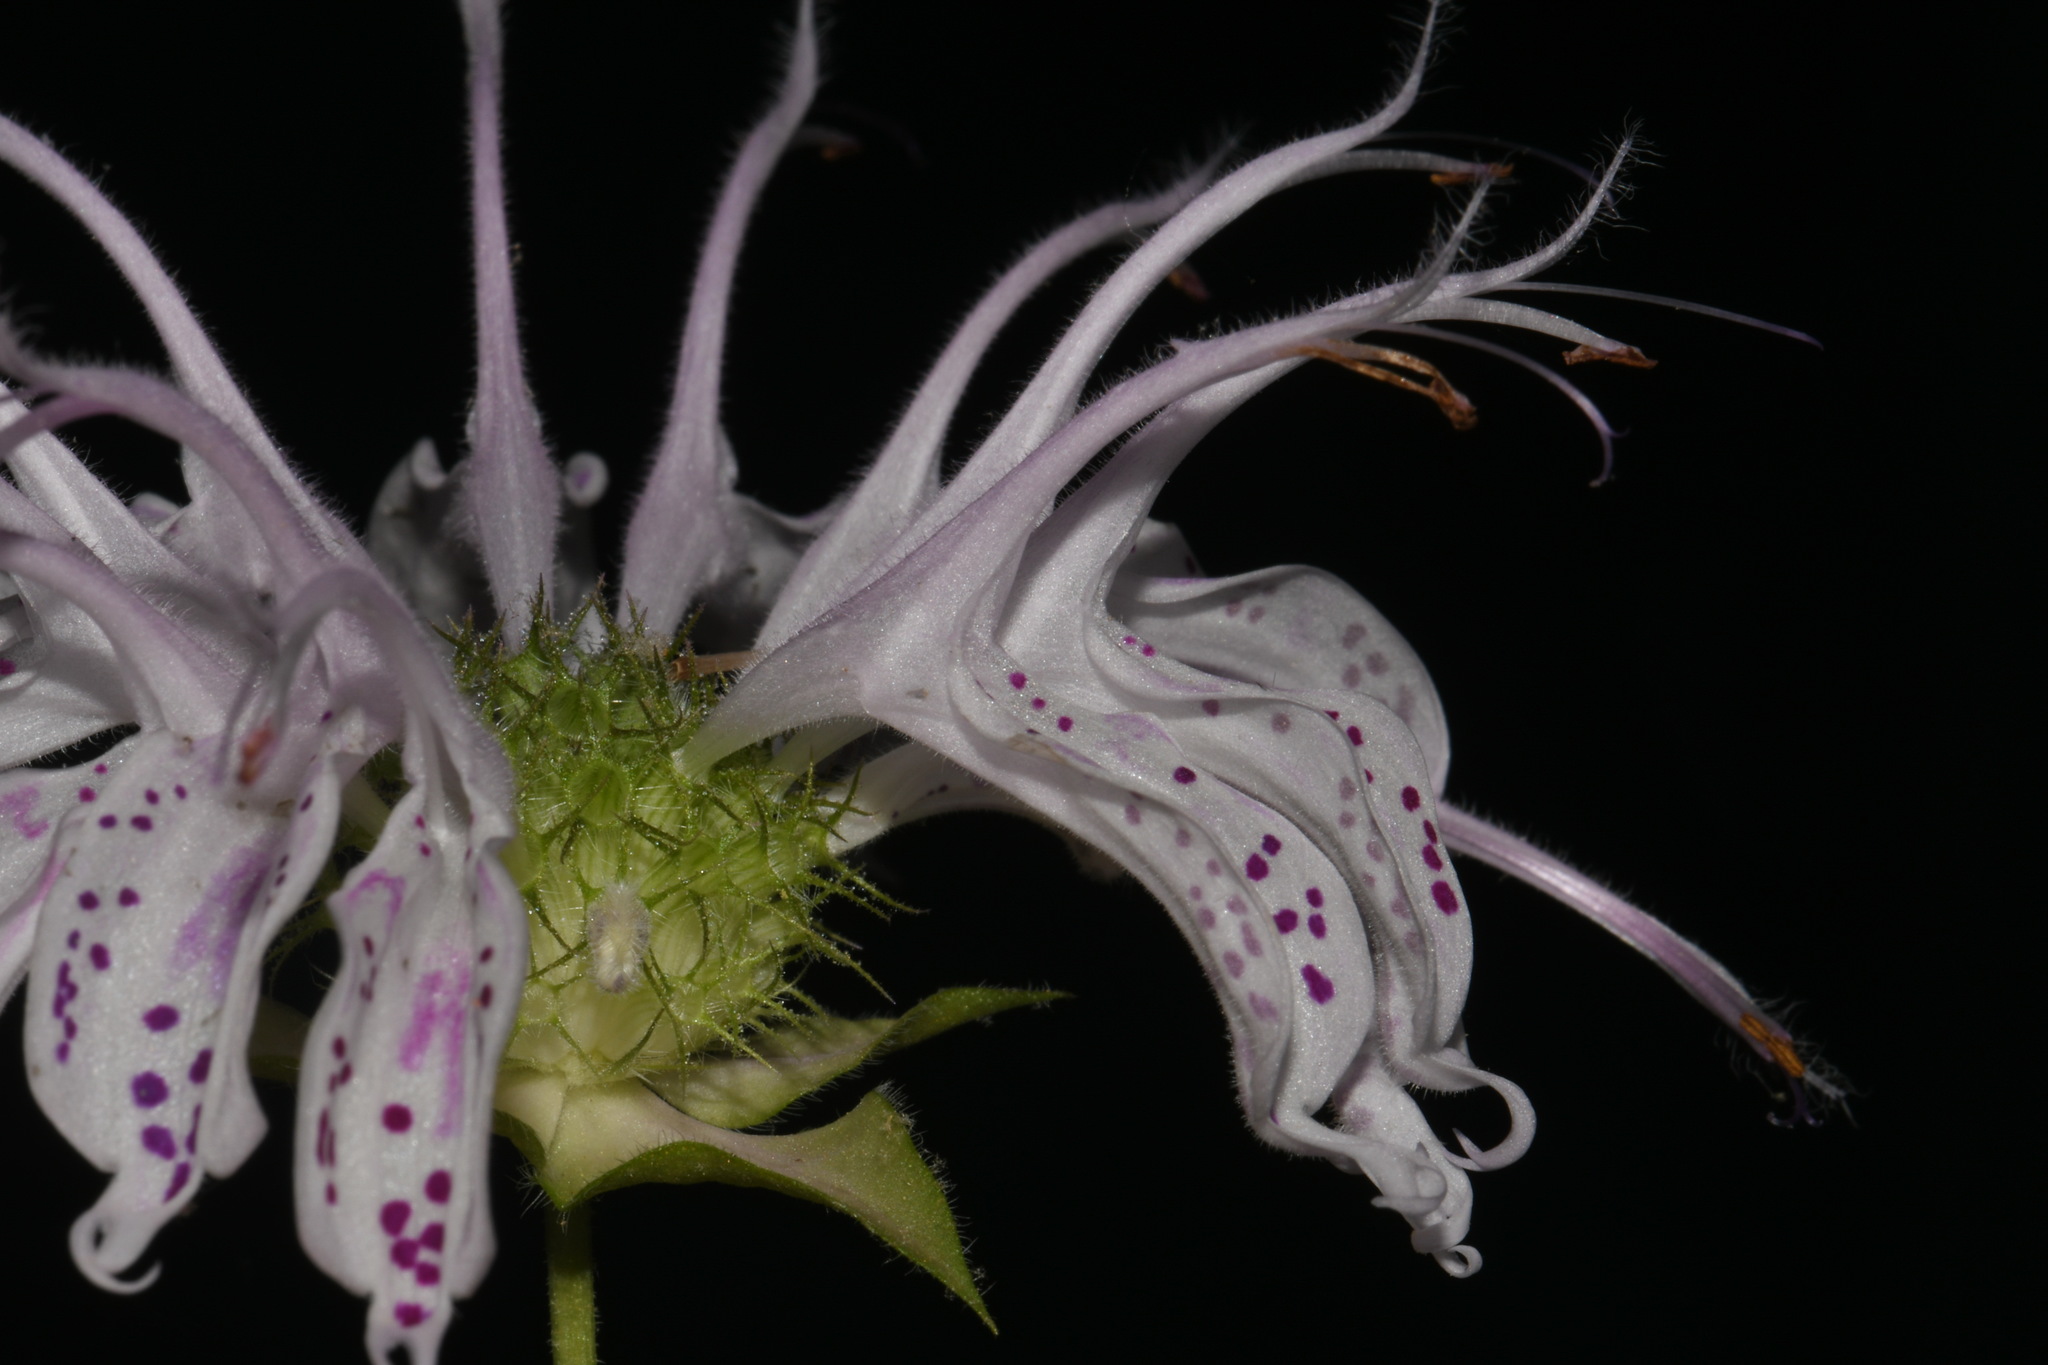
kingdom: Plantae
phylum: Tracheophyta
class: Magnoliopsida
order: Lamiales
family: Lamiaceae
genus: Monarda
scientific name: Monarda bradburiana
